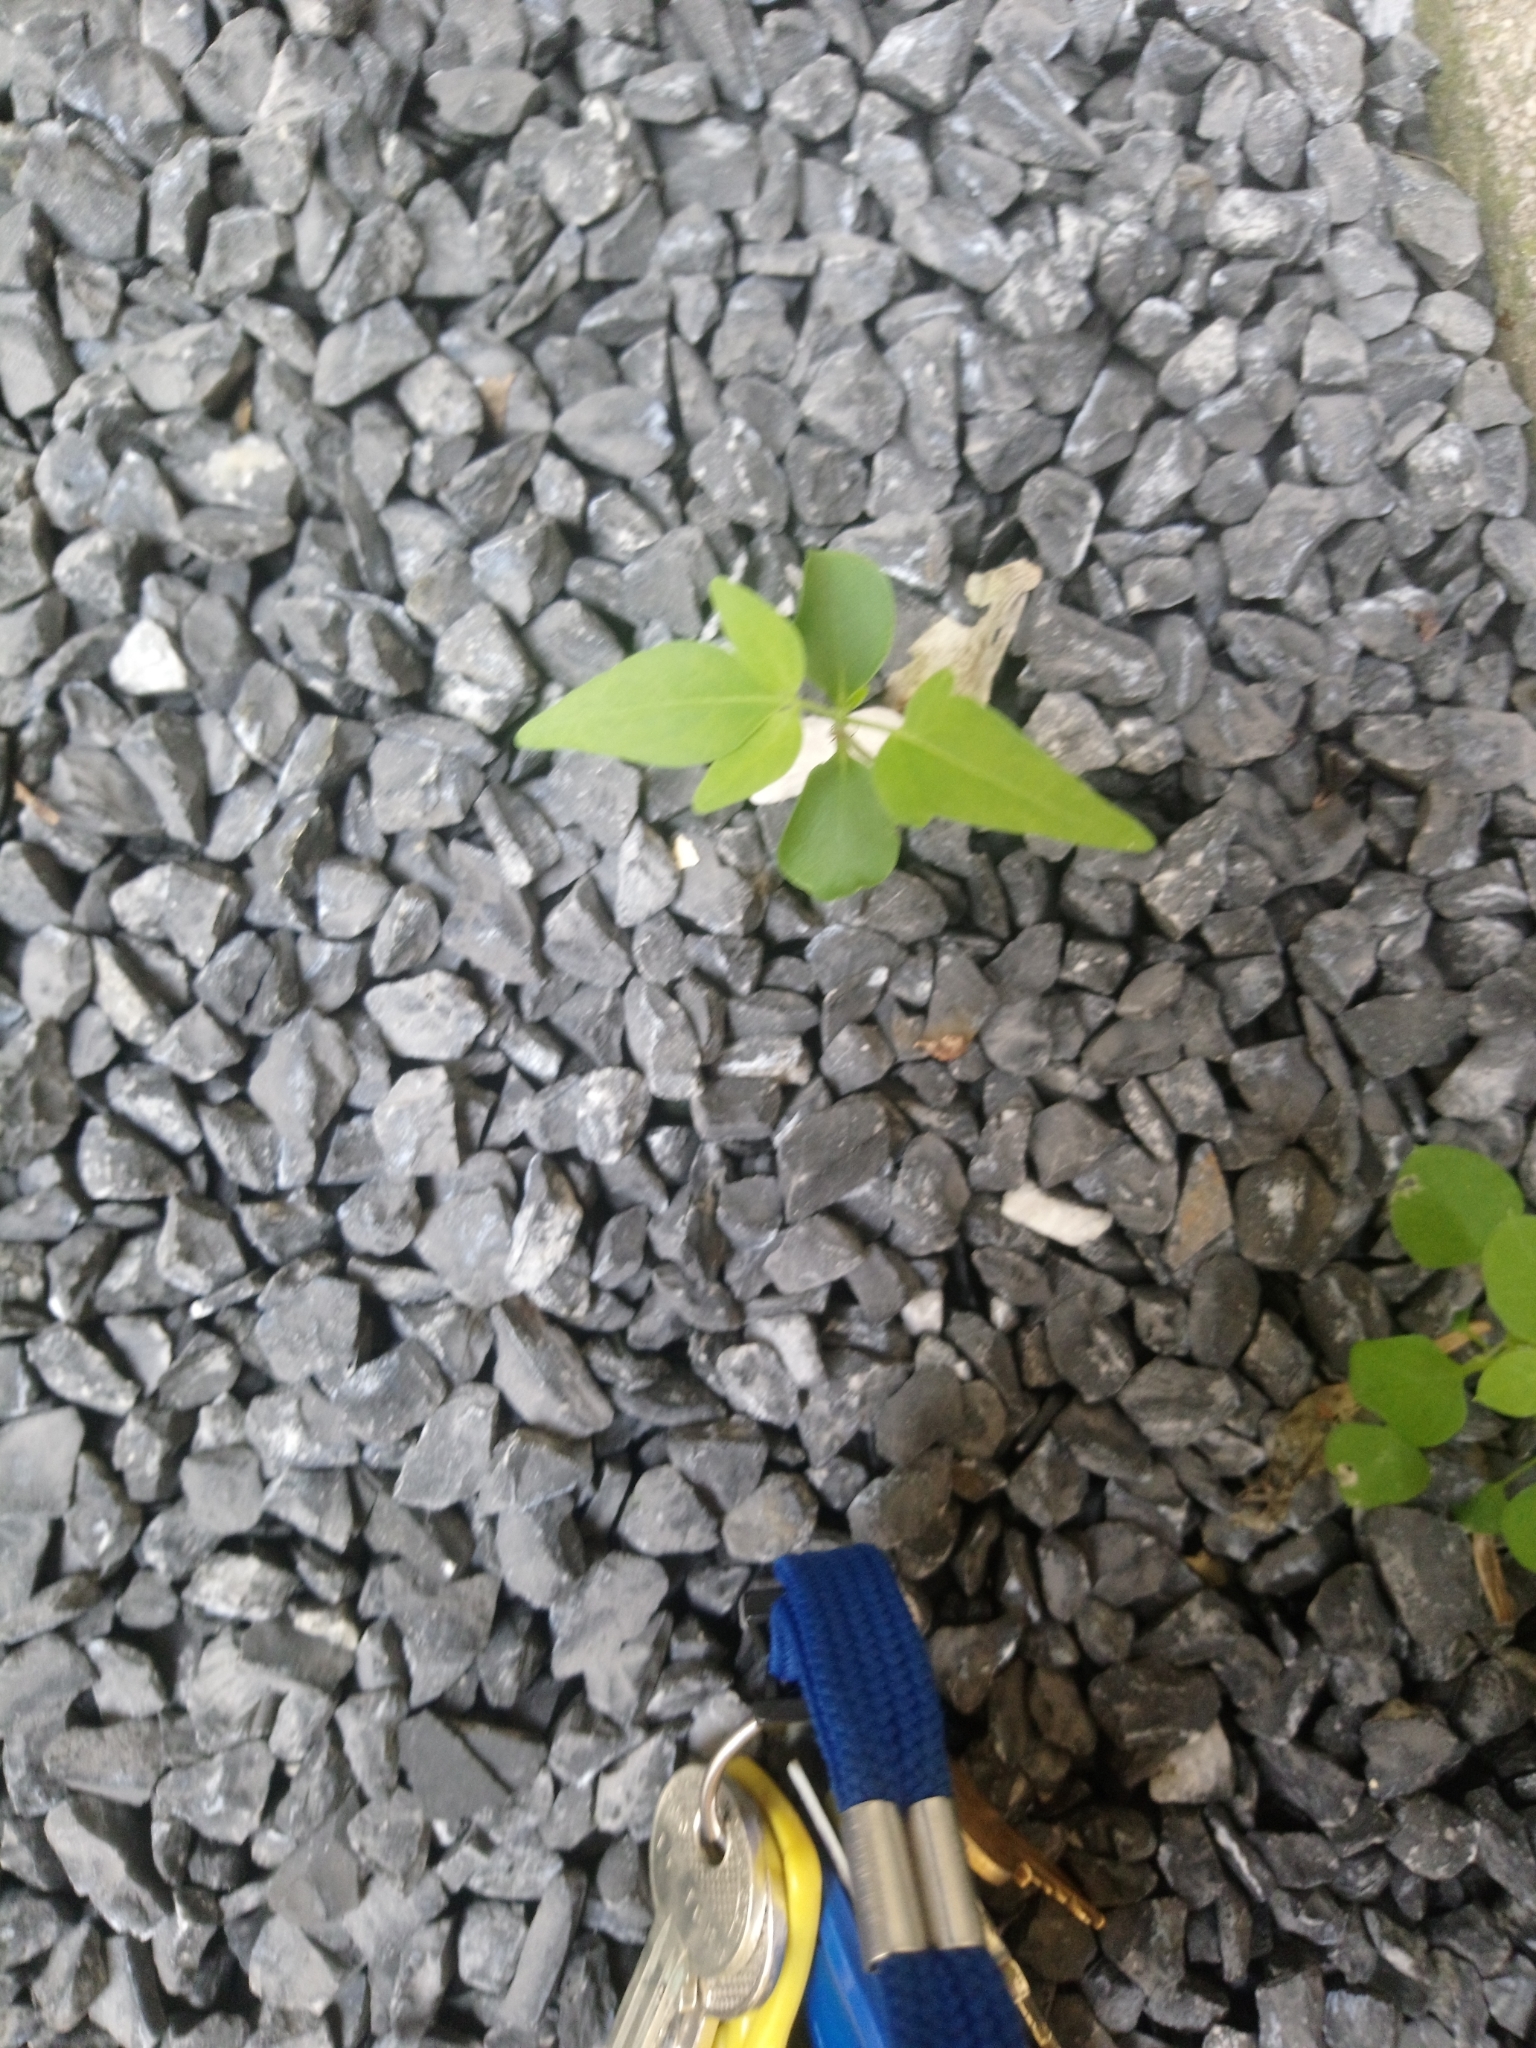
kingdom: Plantae
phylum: Tracheophyta
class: Magnoliopsida
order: Sapindales
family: Simaroubaceae
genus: Ailanthus
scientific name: Ailanthus altissima
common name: Tree-of-heaven
